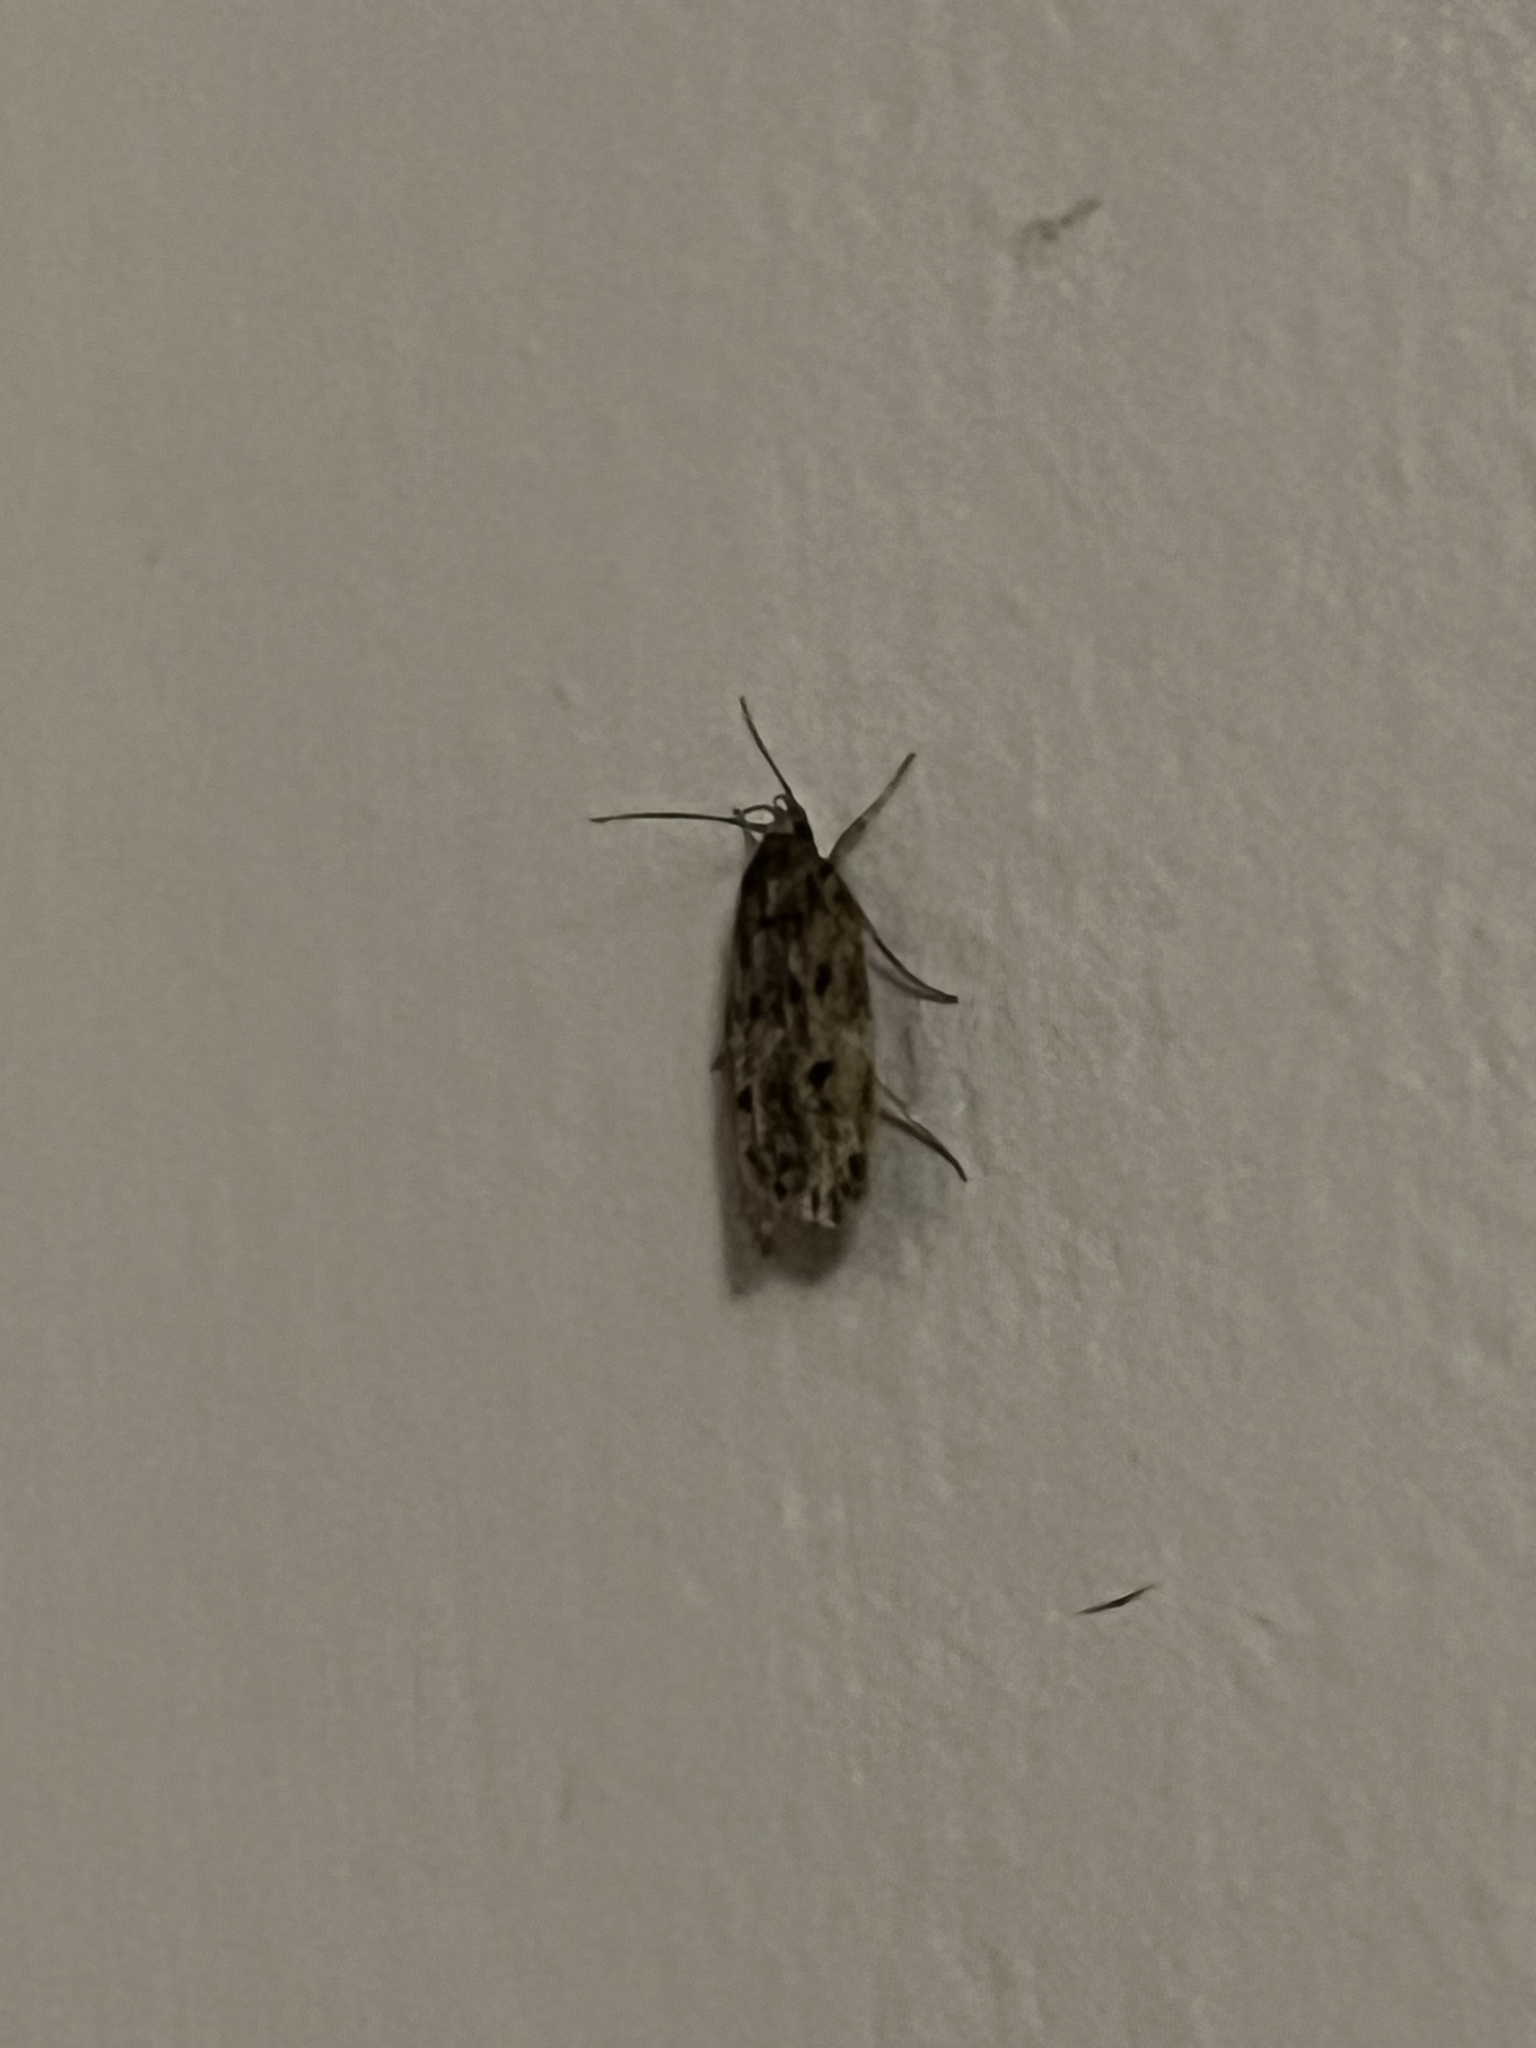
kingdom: Animalia
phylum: Arthropoda
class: Insecta
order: Lepidoptera
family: Oecophoridae
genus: Hofmannophila
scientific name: Hofmannophila pseudospretella
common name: Brown house moth
